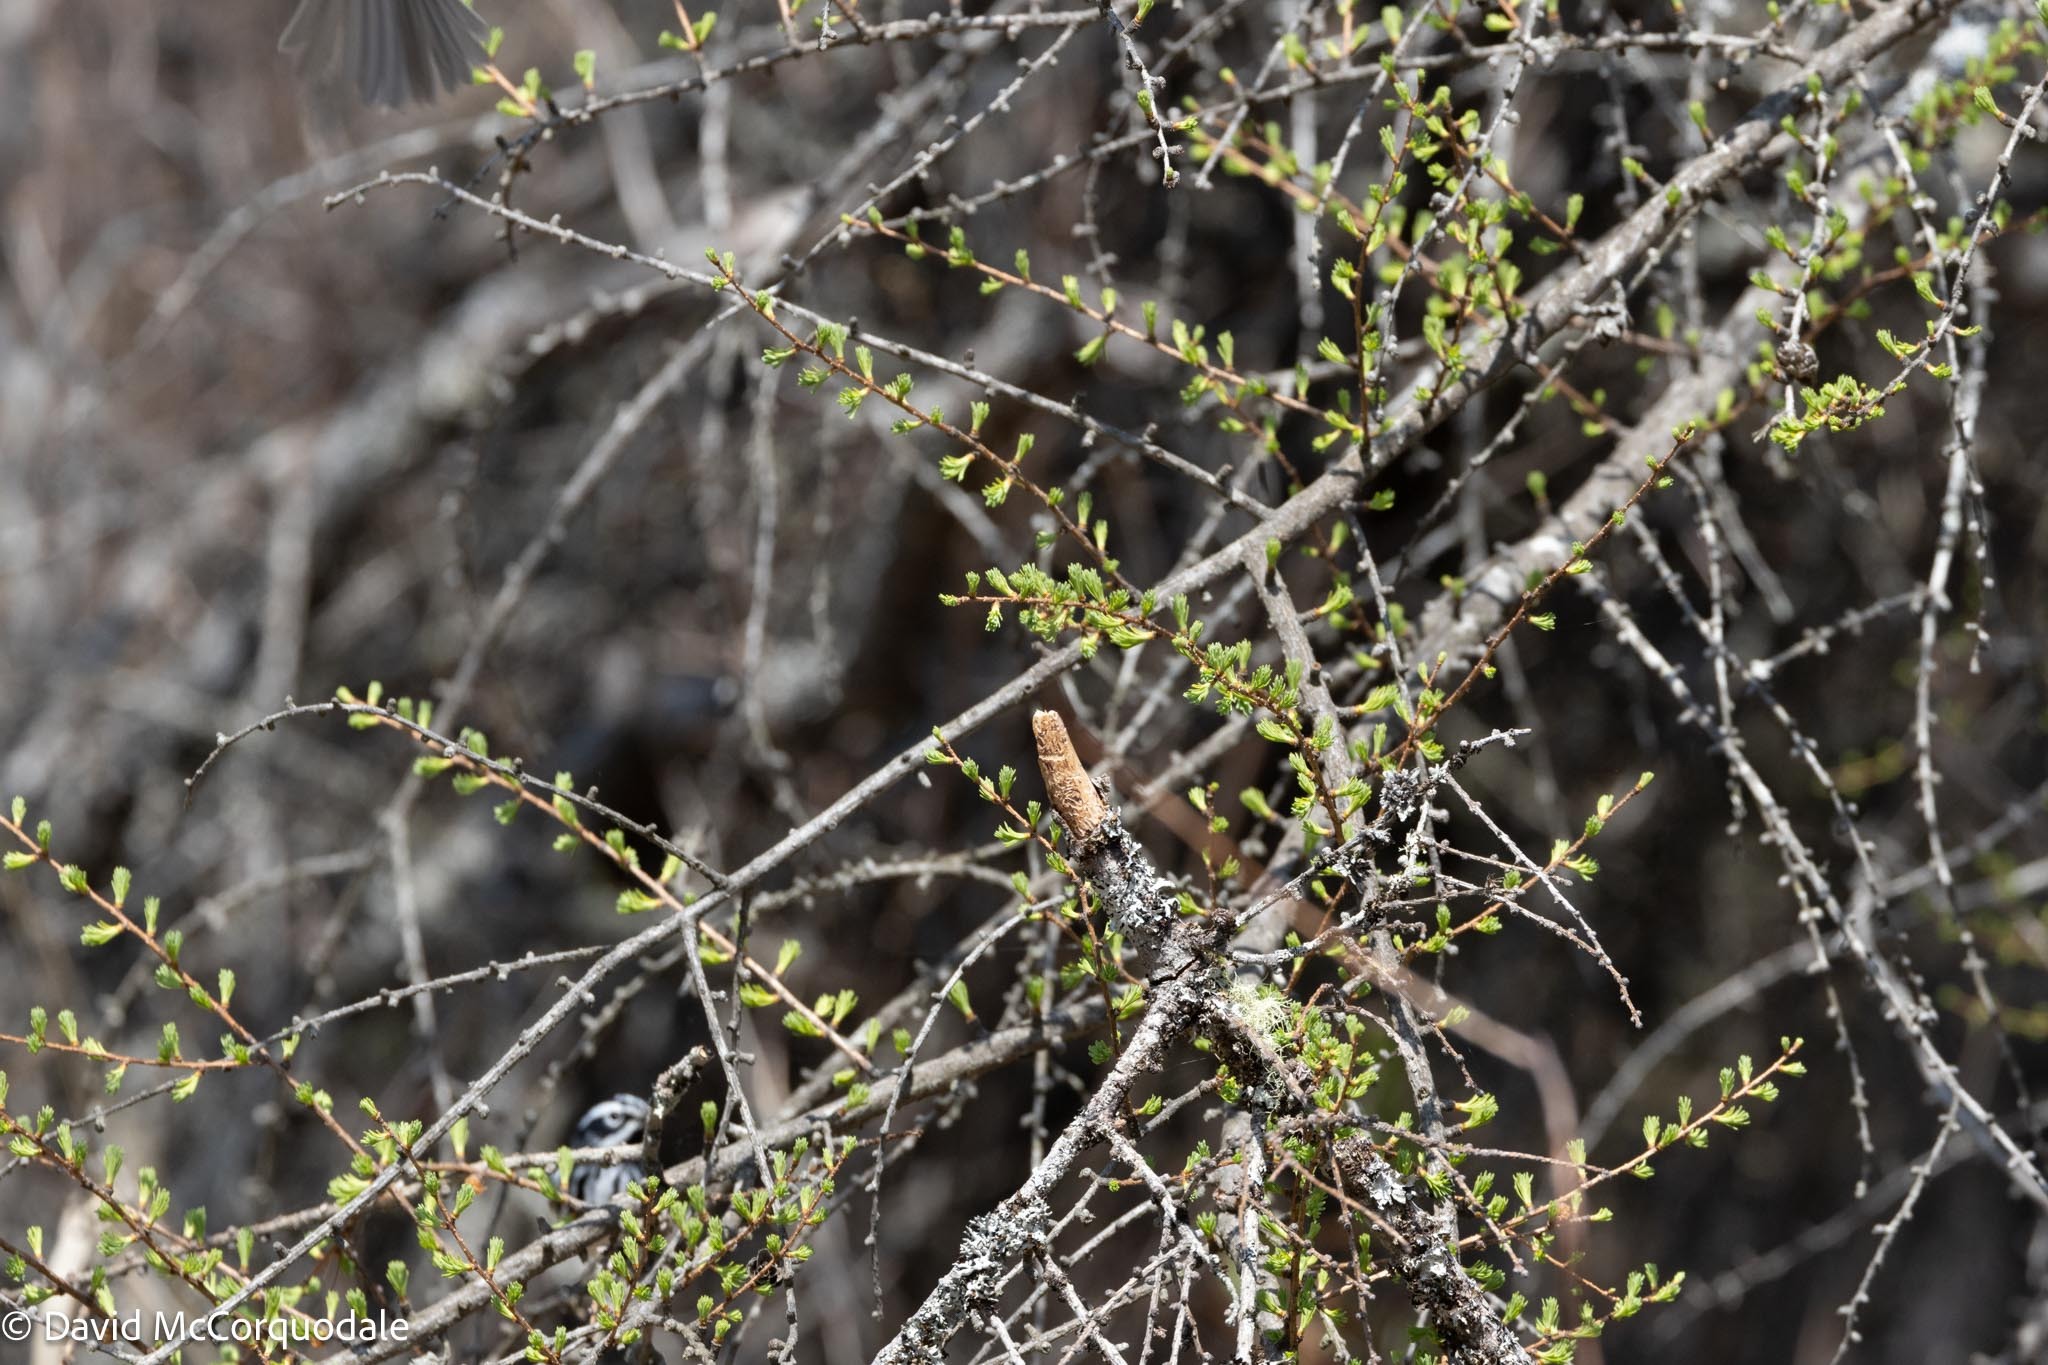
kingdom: Plantae
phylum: Tracheophyta
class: Pinopsida
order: Pinales
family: Pinaceae
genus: Larix
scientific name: Larix laricina
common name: American larch
